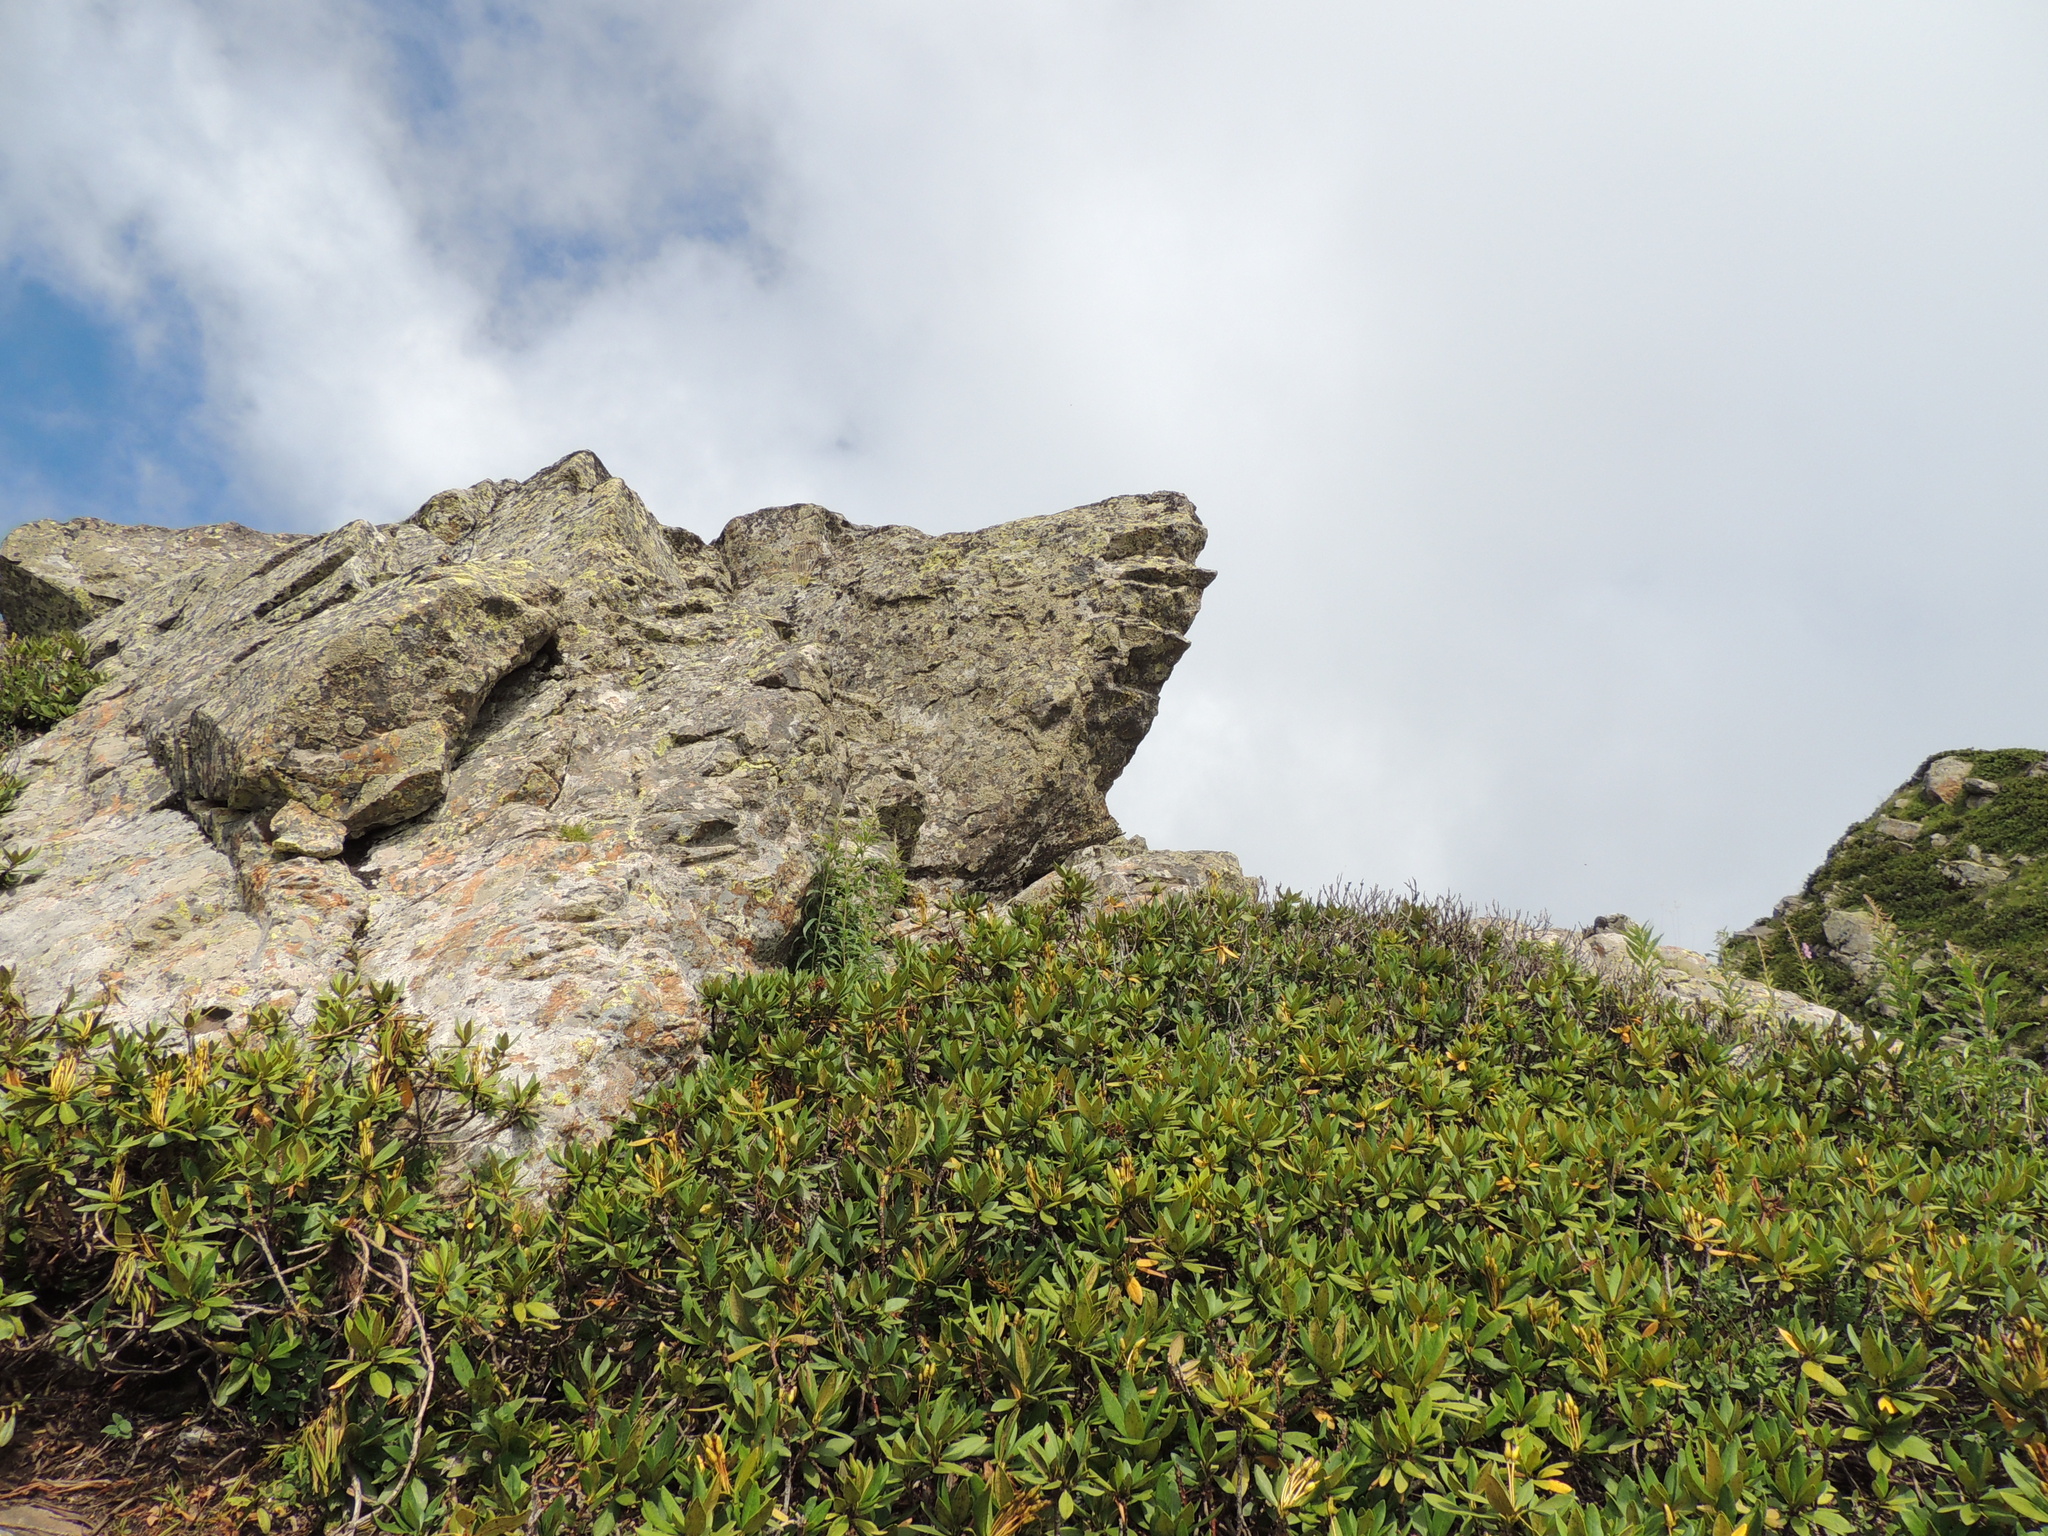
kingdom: Plantae
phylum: Tracheophyta
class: Magnoliopsida
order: Ericales
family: Ericaceae
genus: Rhododendron
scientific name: Rhododendron caucasicum
